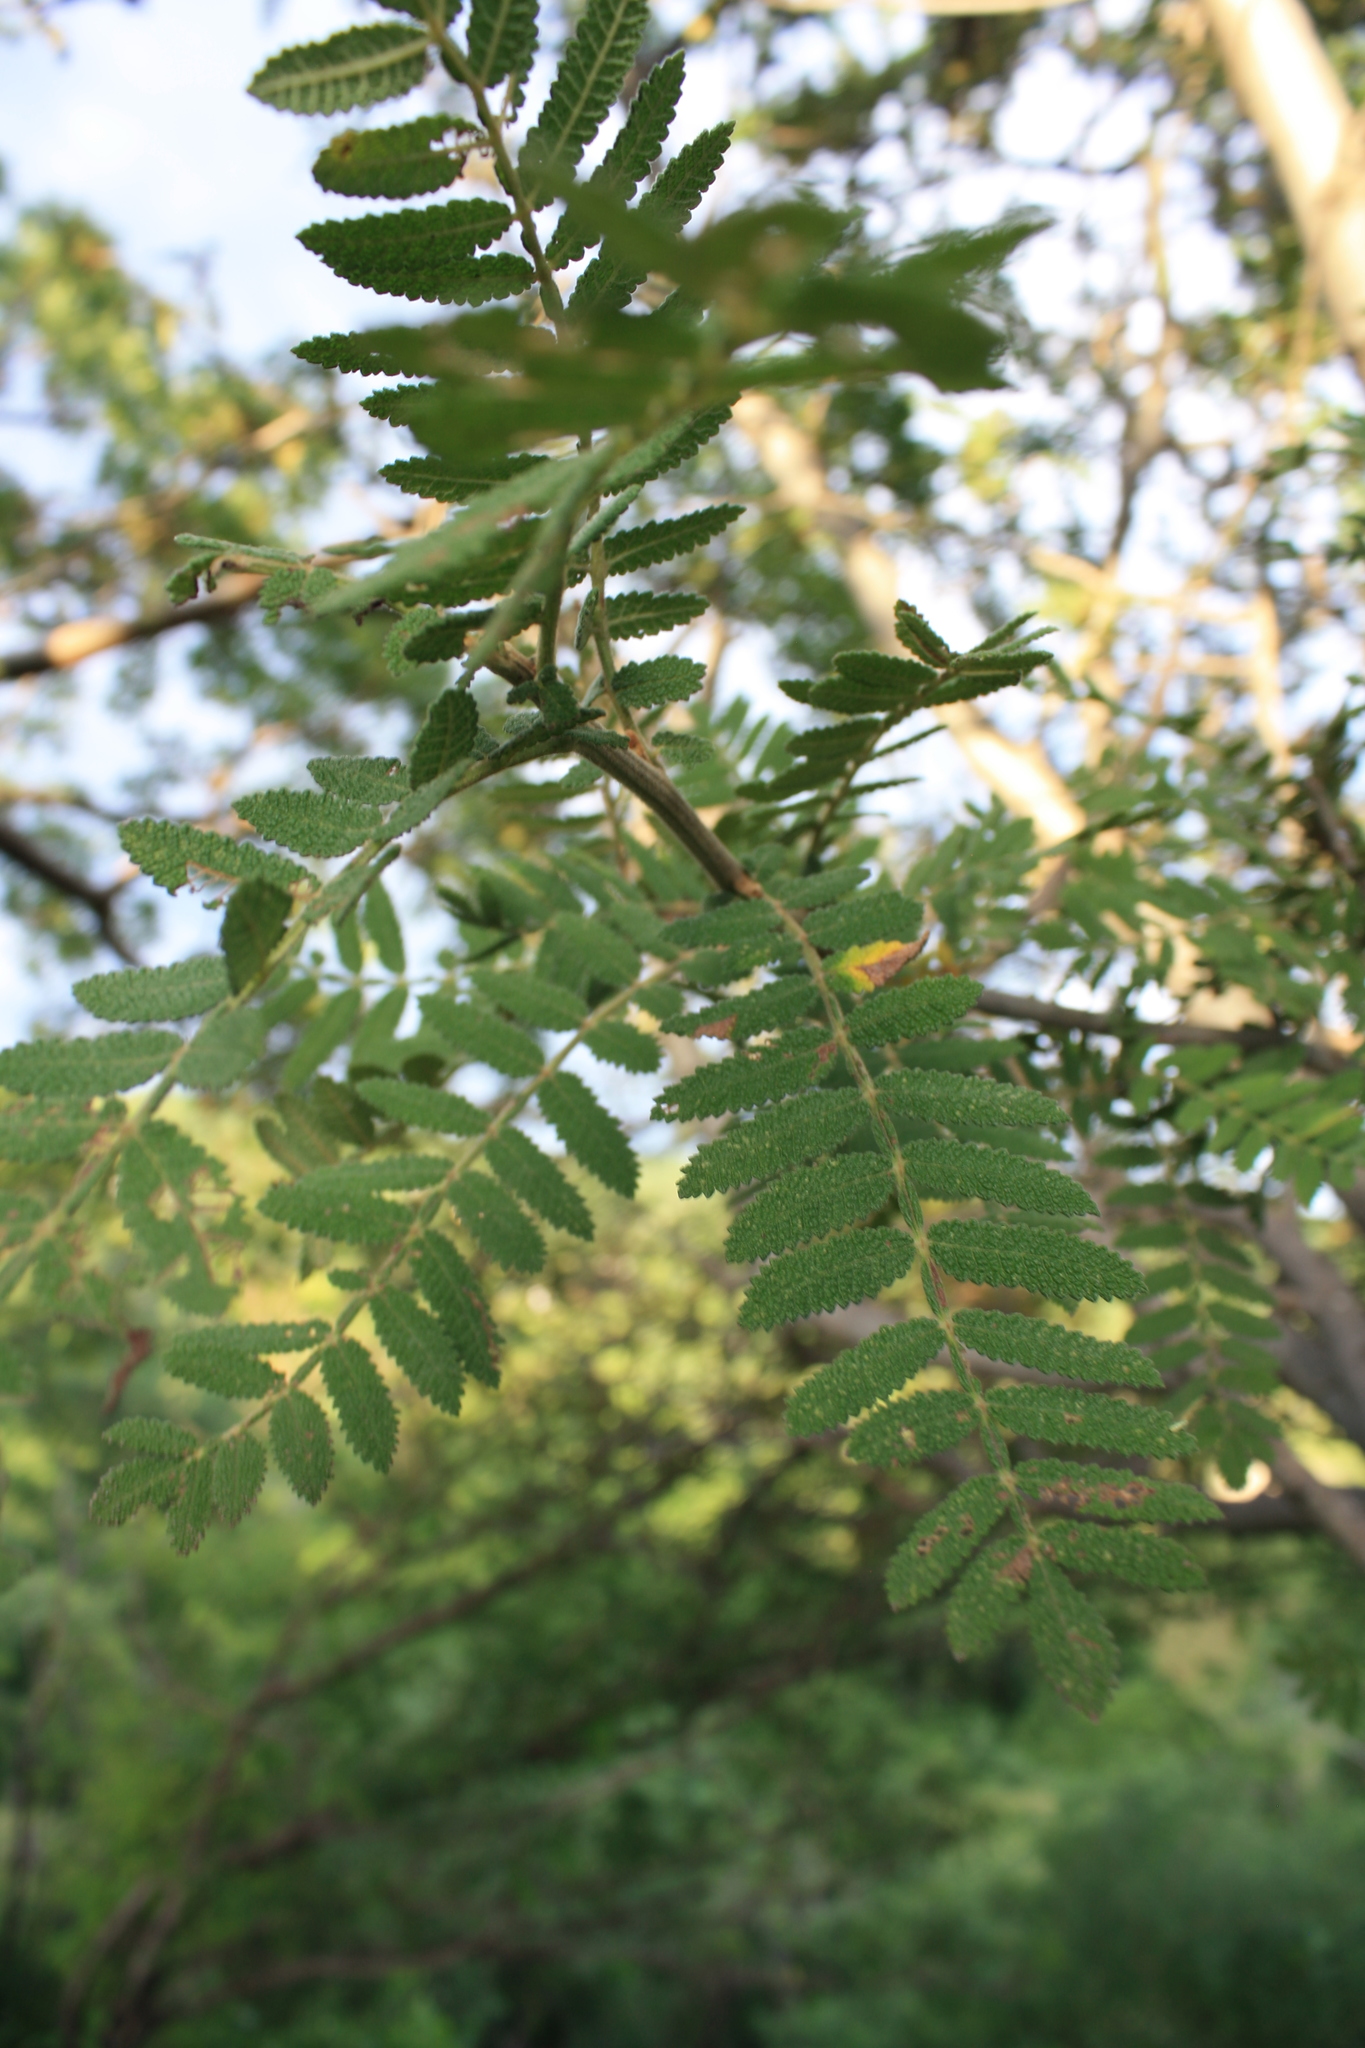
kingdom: Plantae
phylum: Tracheophyta
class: Magnoliopsida
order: Sapindales
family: Burseraceae
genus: Bursera
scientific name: Bursera copallifera
